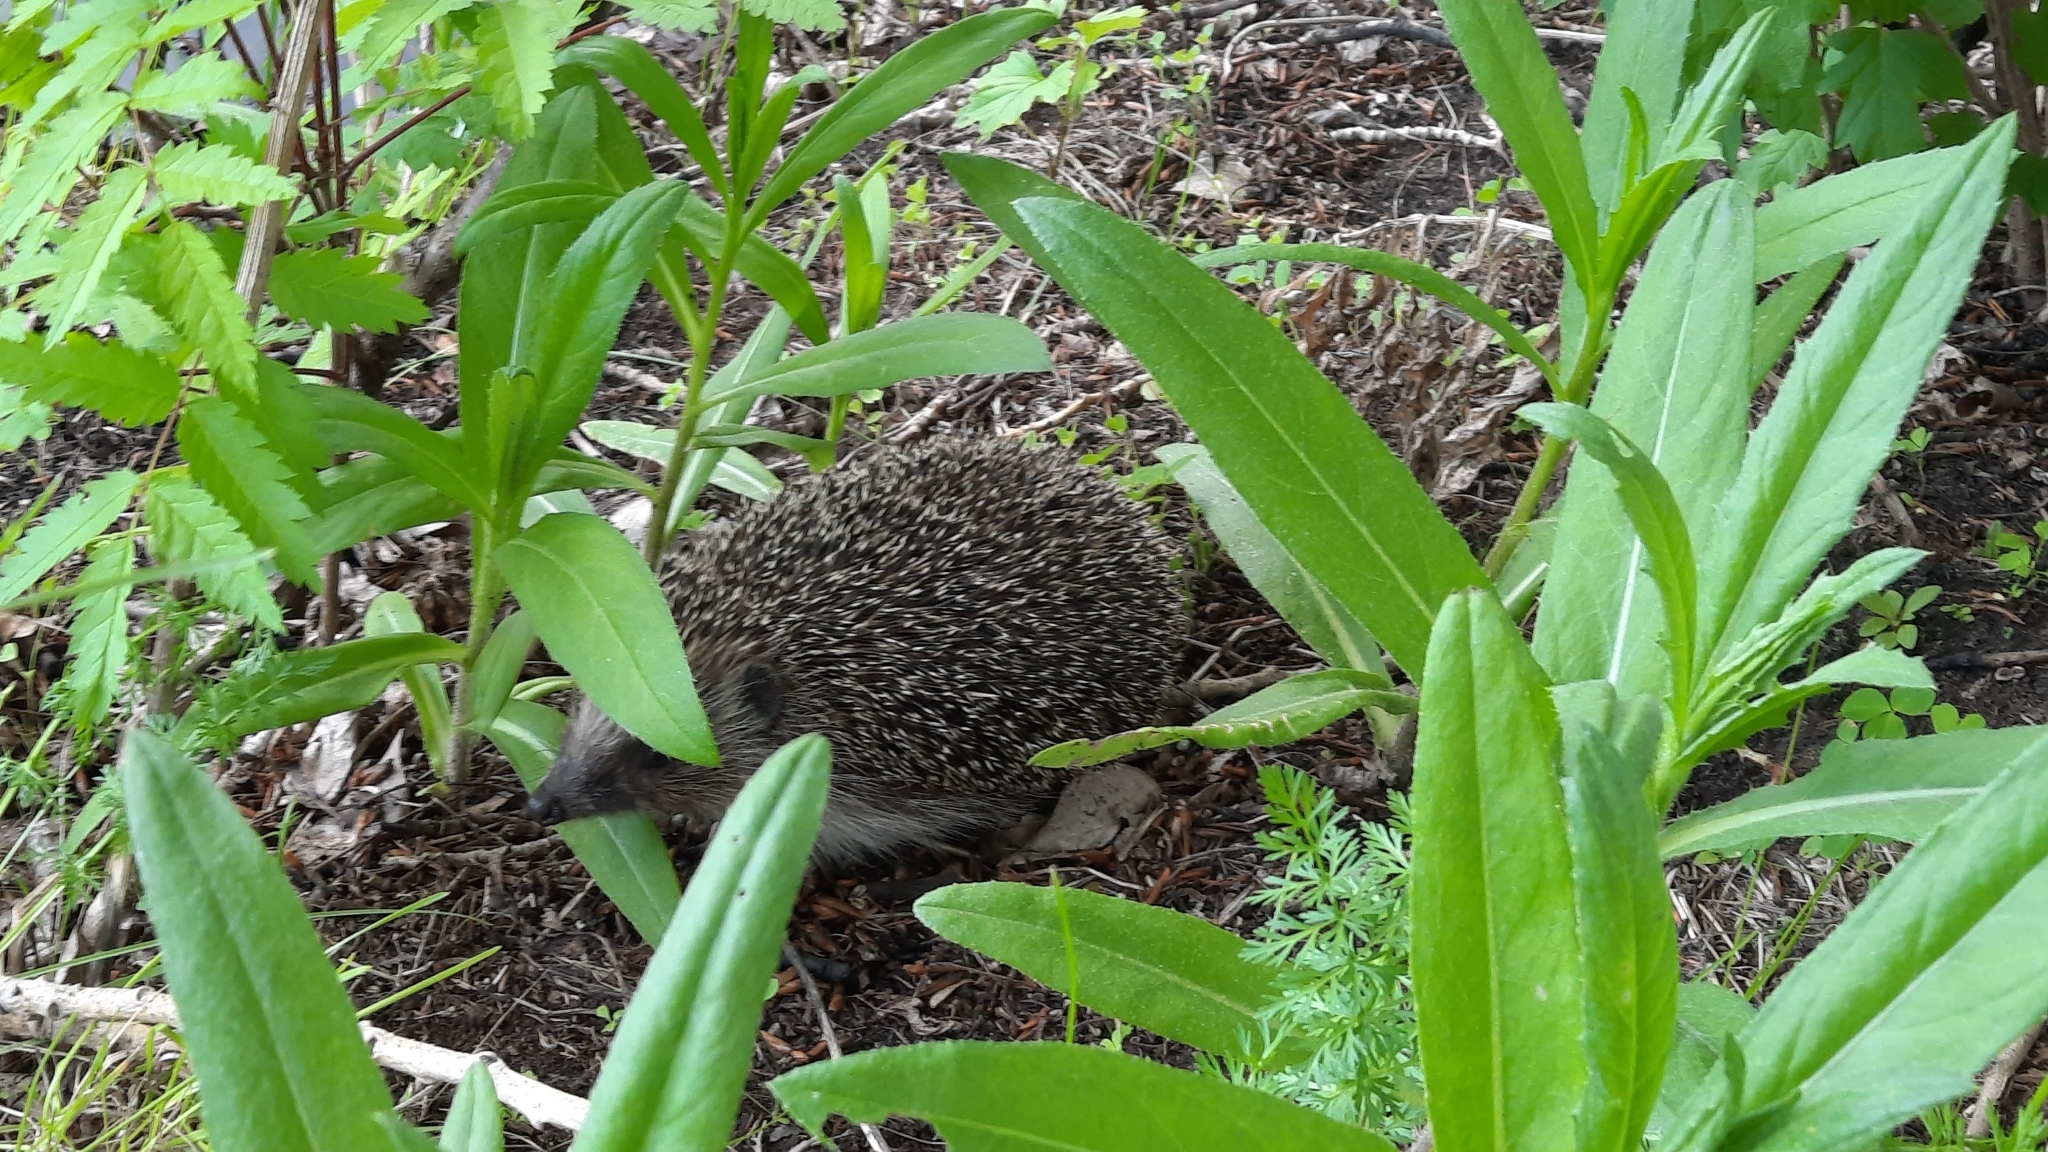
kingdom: Animalia
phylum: Chordata
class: Mammalia
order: Erinaceomorpha
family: Erinaceidae
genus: Erinaceus
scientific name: Erinaceus roumanicus
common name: Northern white-breasted hedgehog
